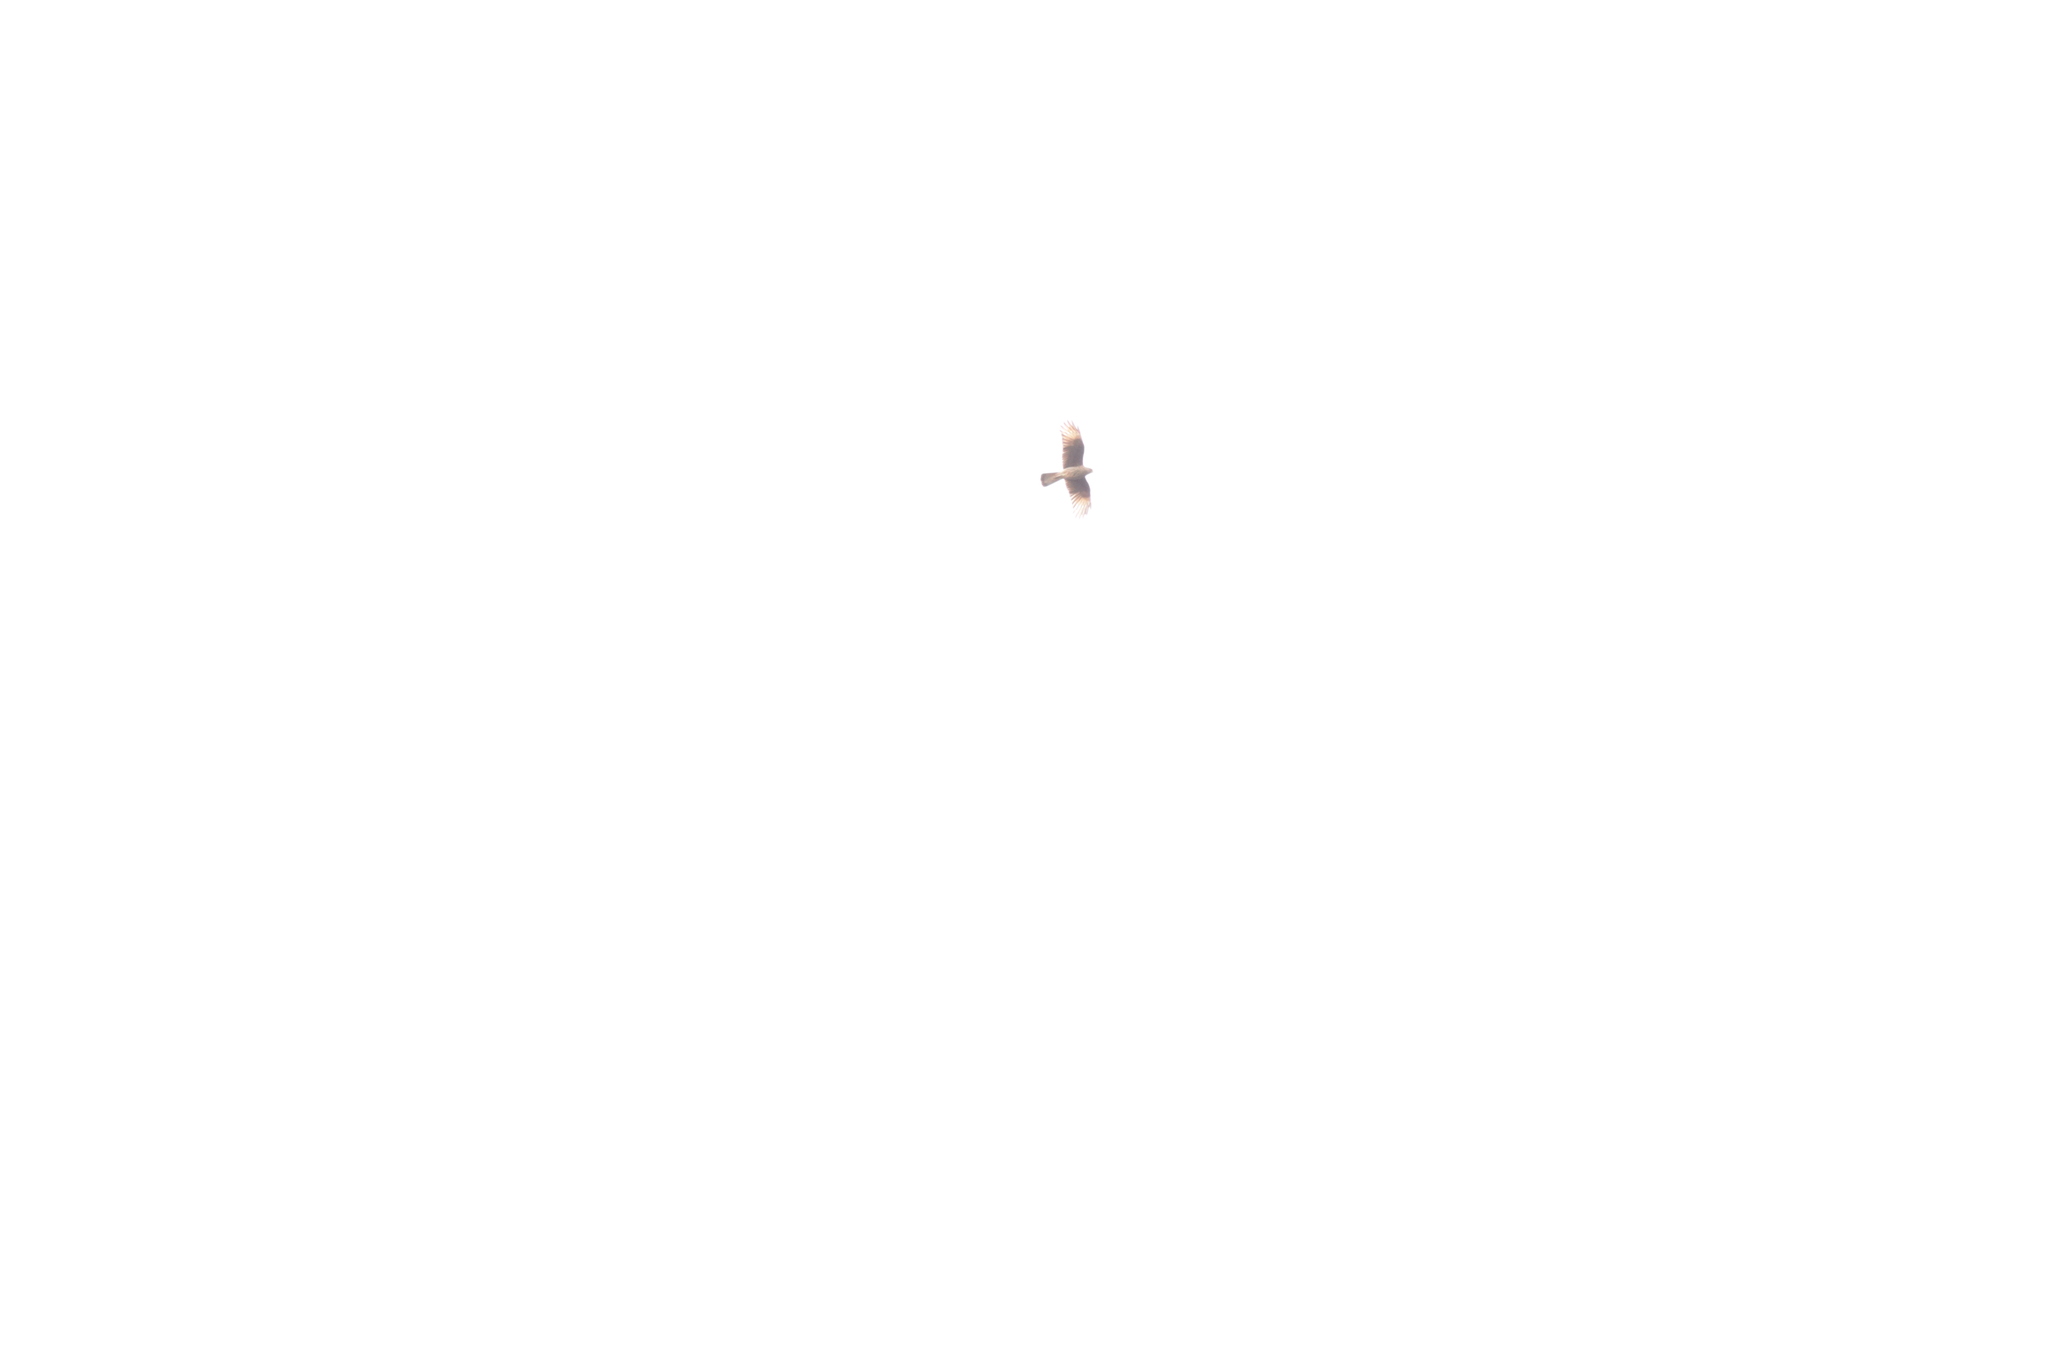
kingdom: Animalia
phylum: Chordata
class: Aves
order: Falconiformes
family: Falconidae
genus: Daptrius
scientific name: Daptrius
